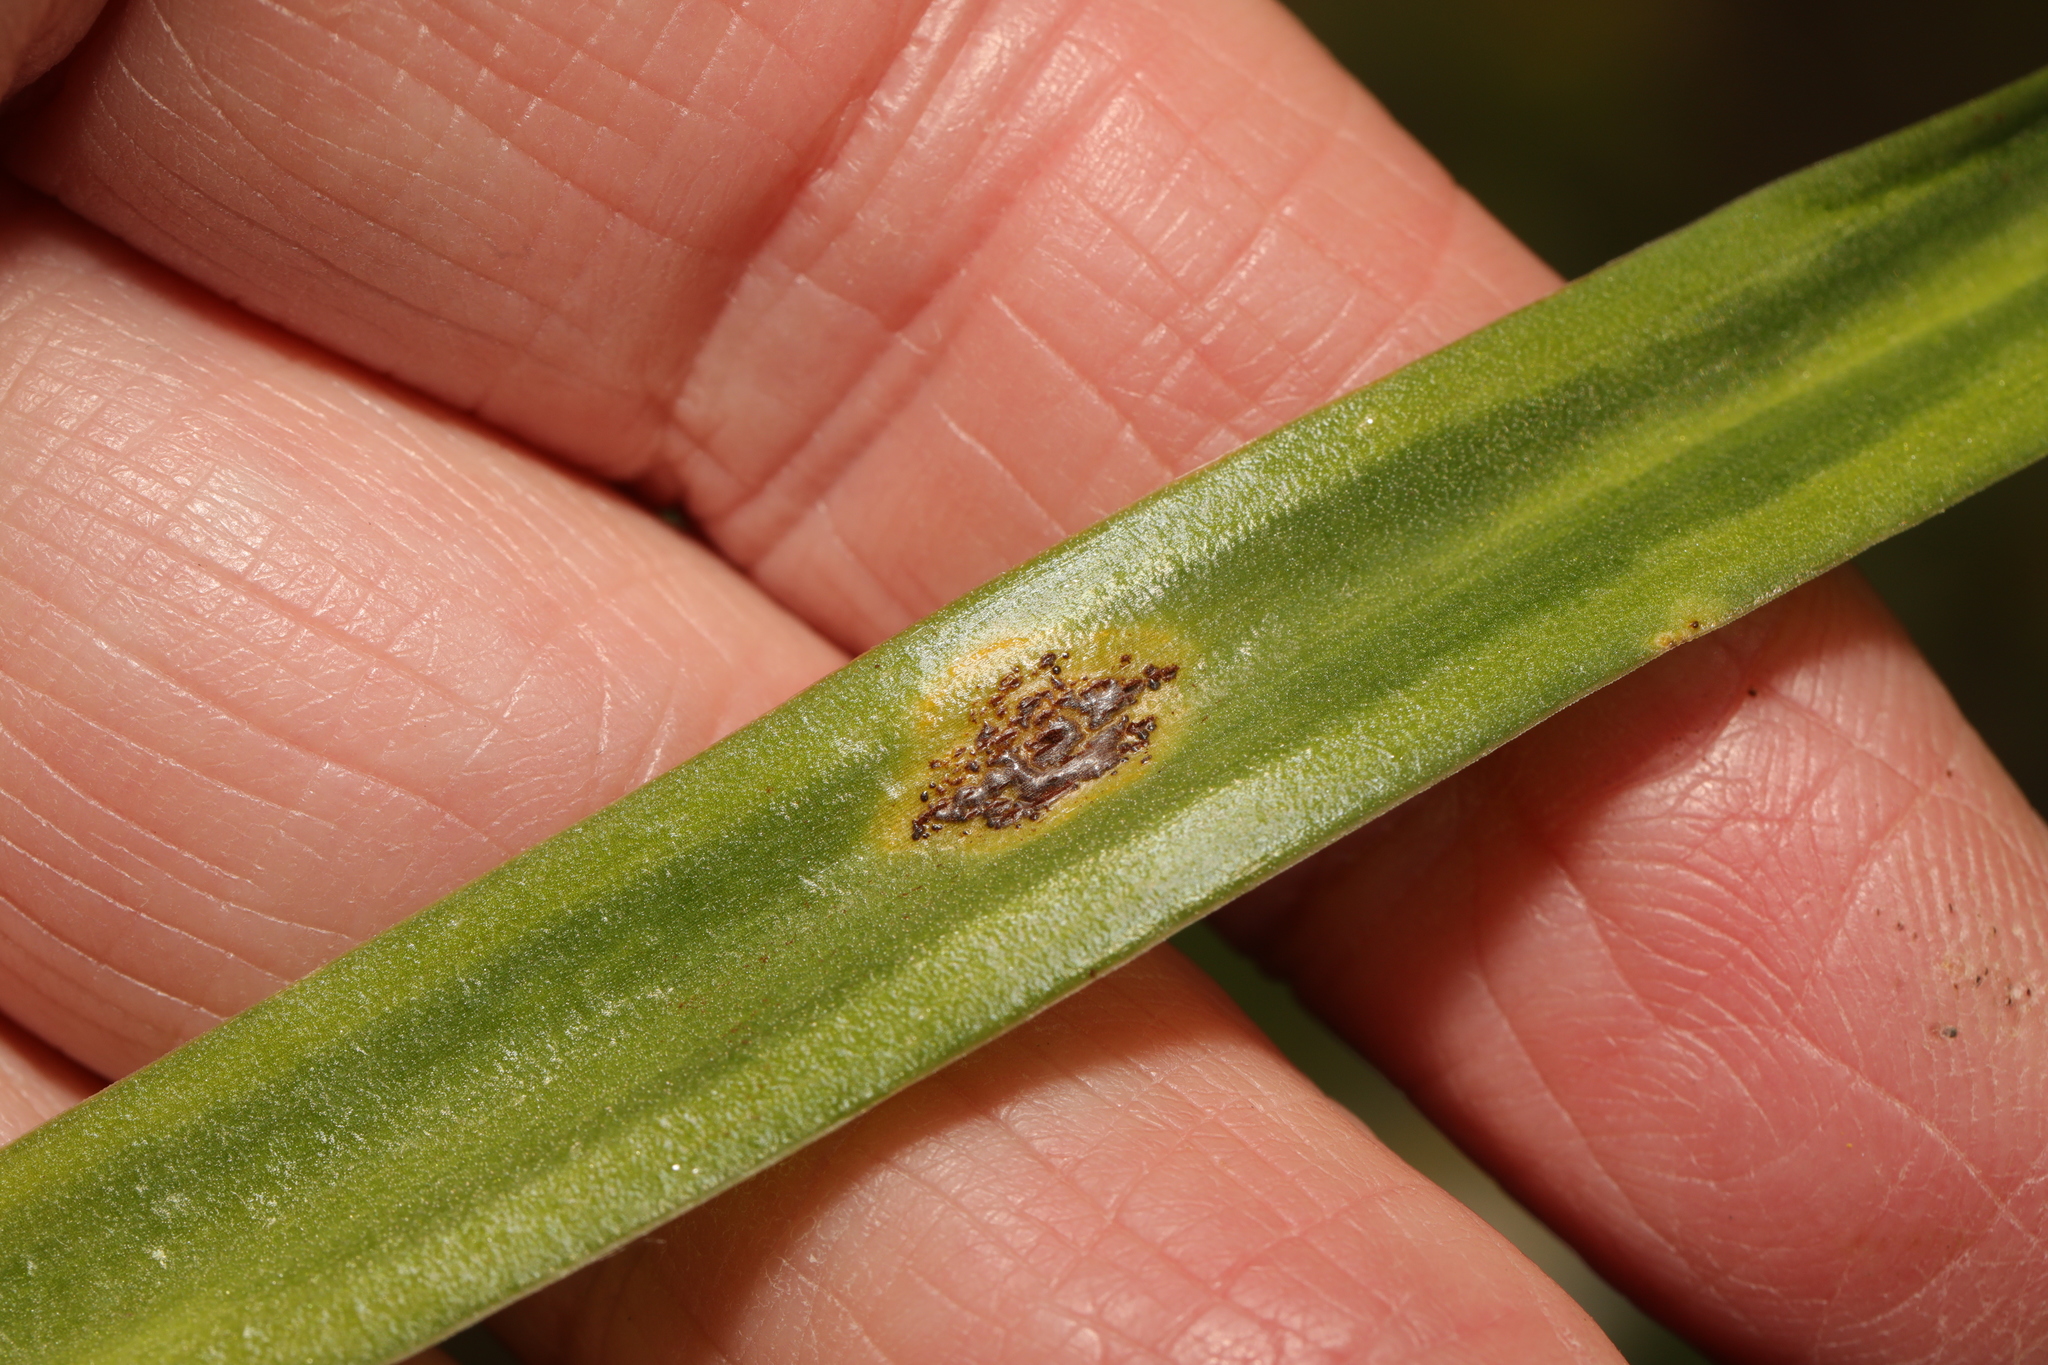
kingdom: Fungi
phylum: Basidiomycota
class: Pucciniomycetes
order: Pucciniales
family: Pucciniaceae
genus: Uromyces
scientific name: Uromyces hyacinthi
